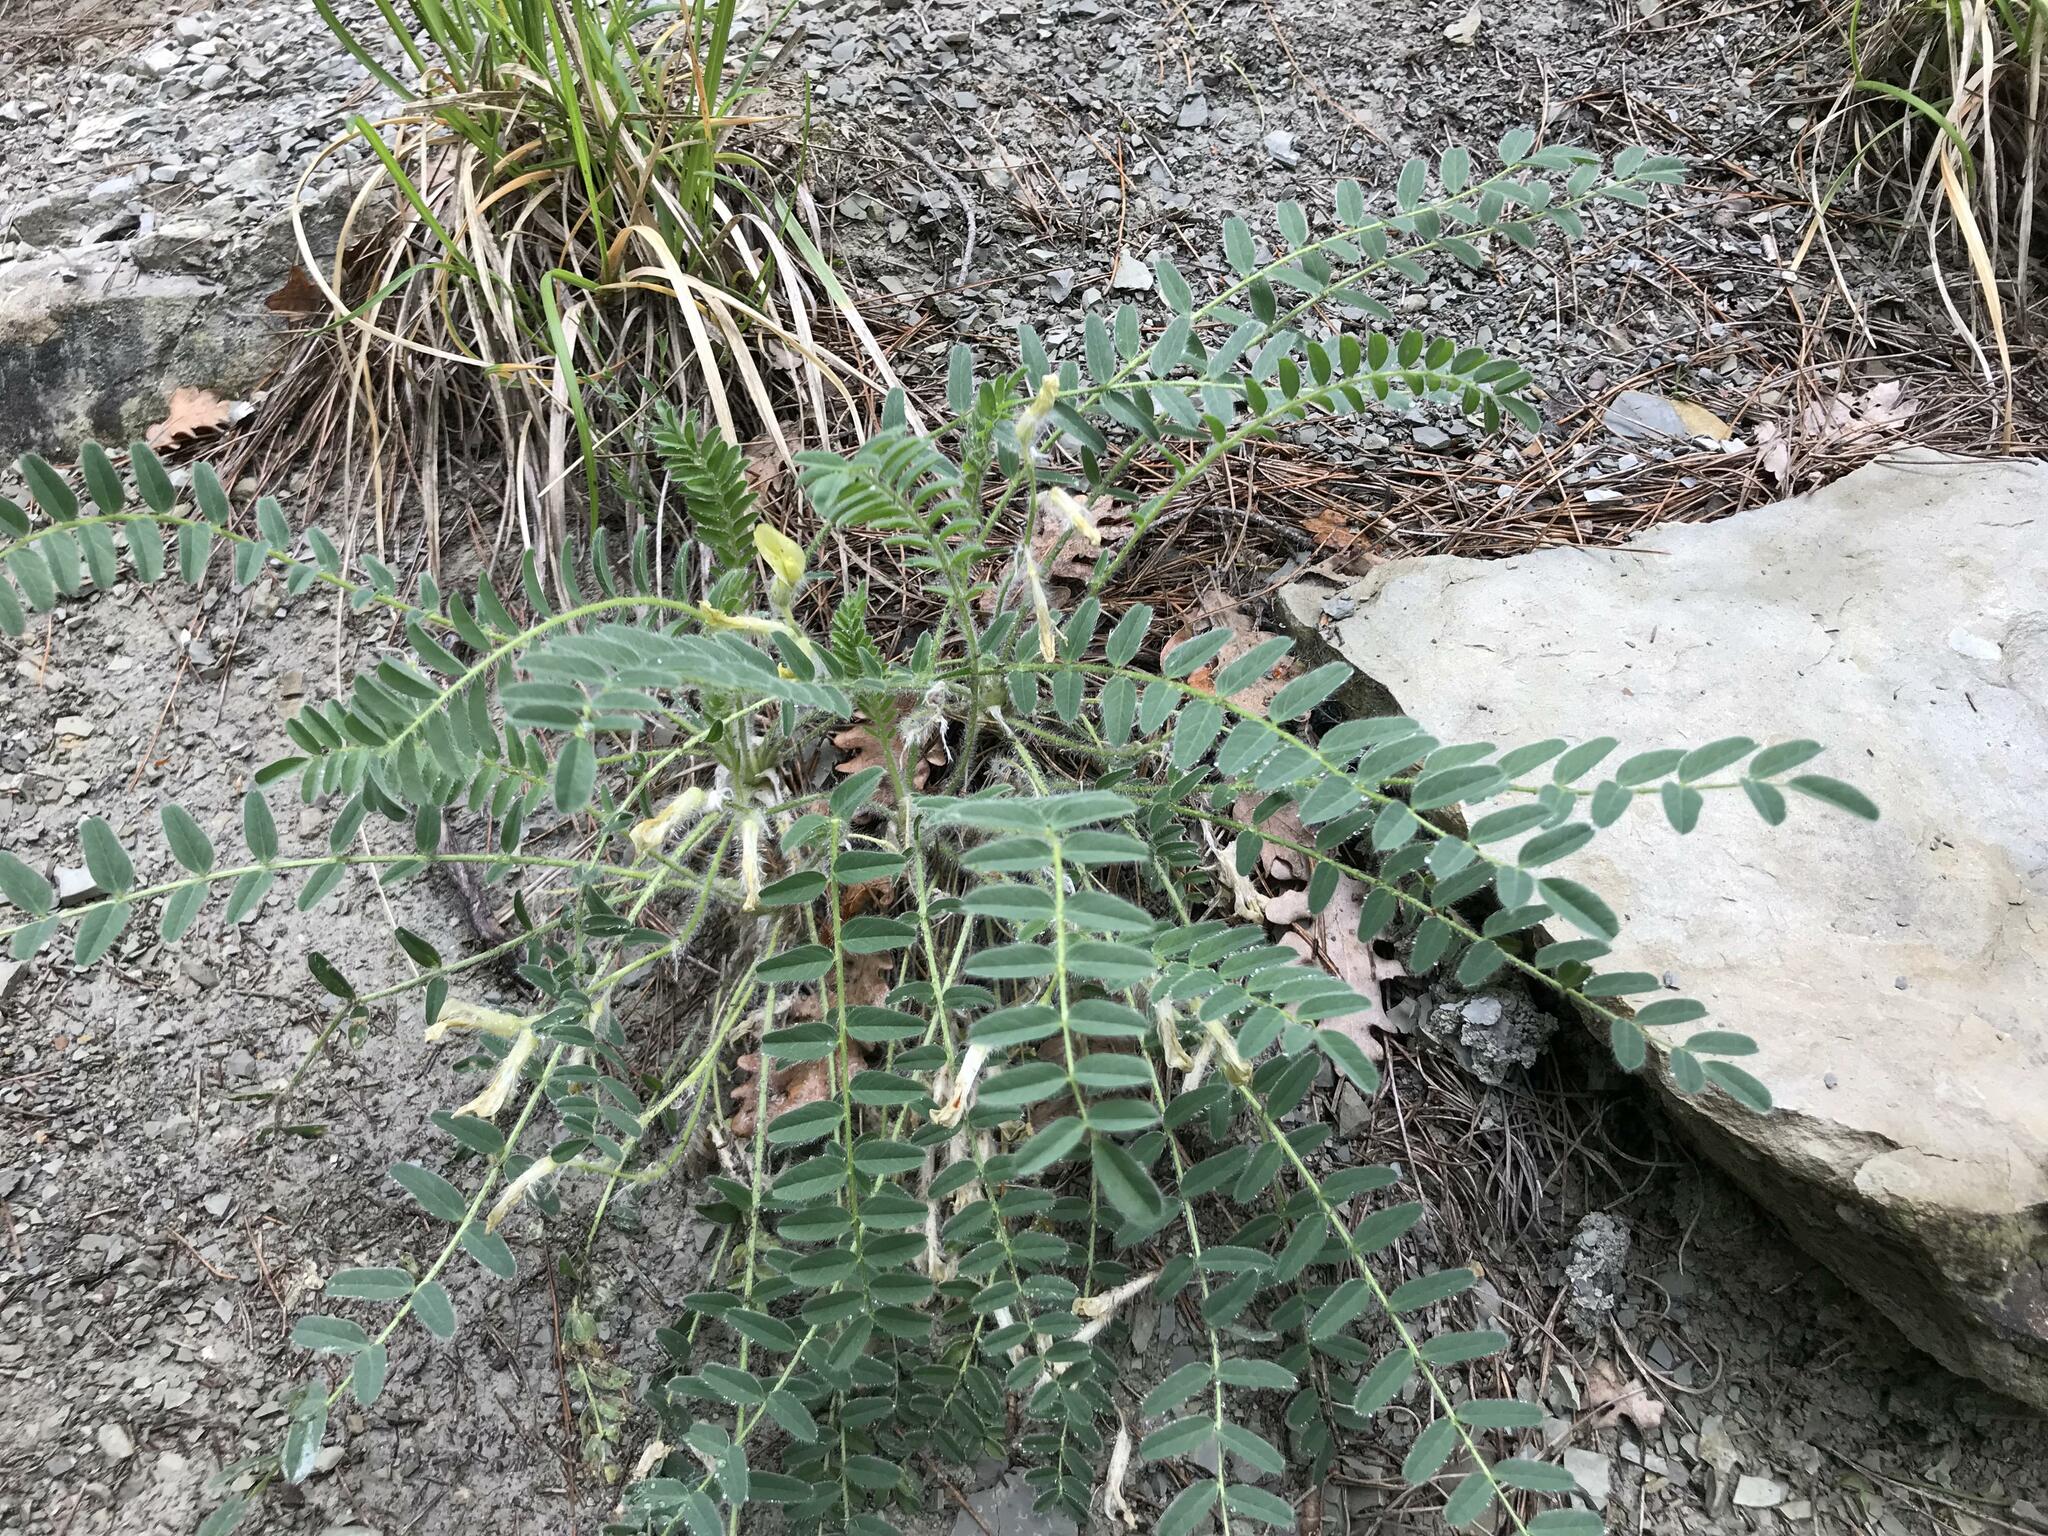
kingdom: Plantae
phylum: Tracheophyta
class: Magnoliopsida
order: Fabales
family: Fabaceae
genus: Astragalus
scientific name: Astragalus utriger
